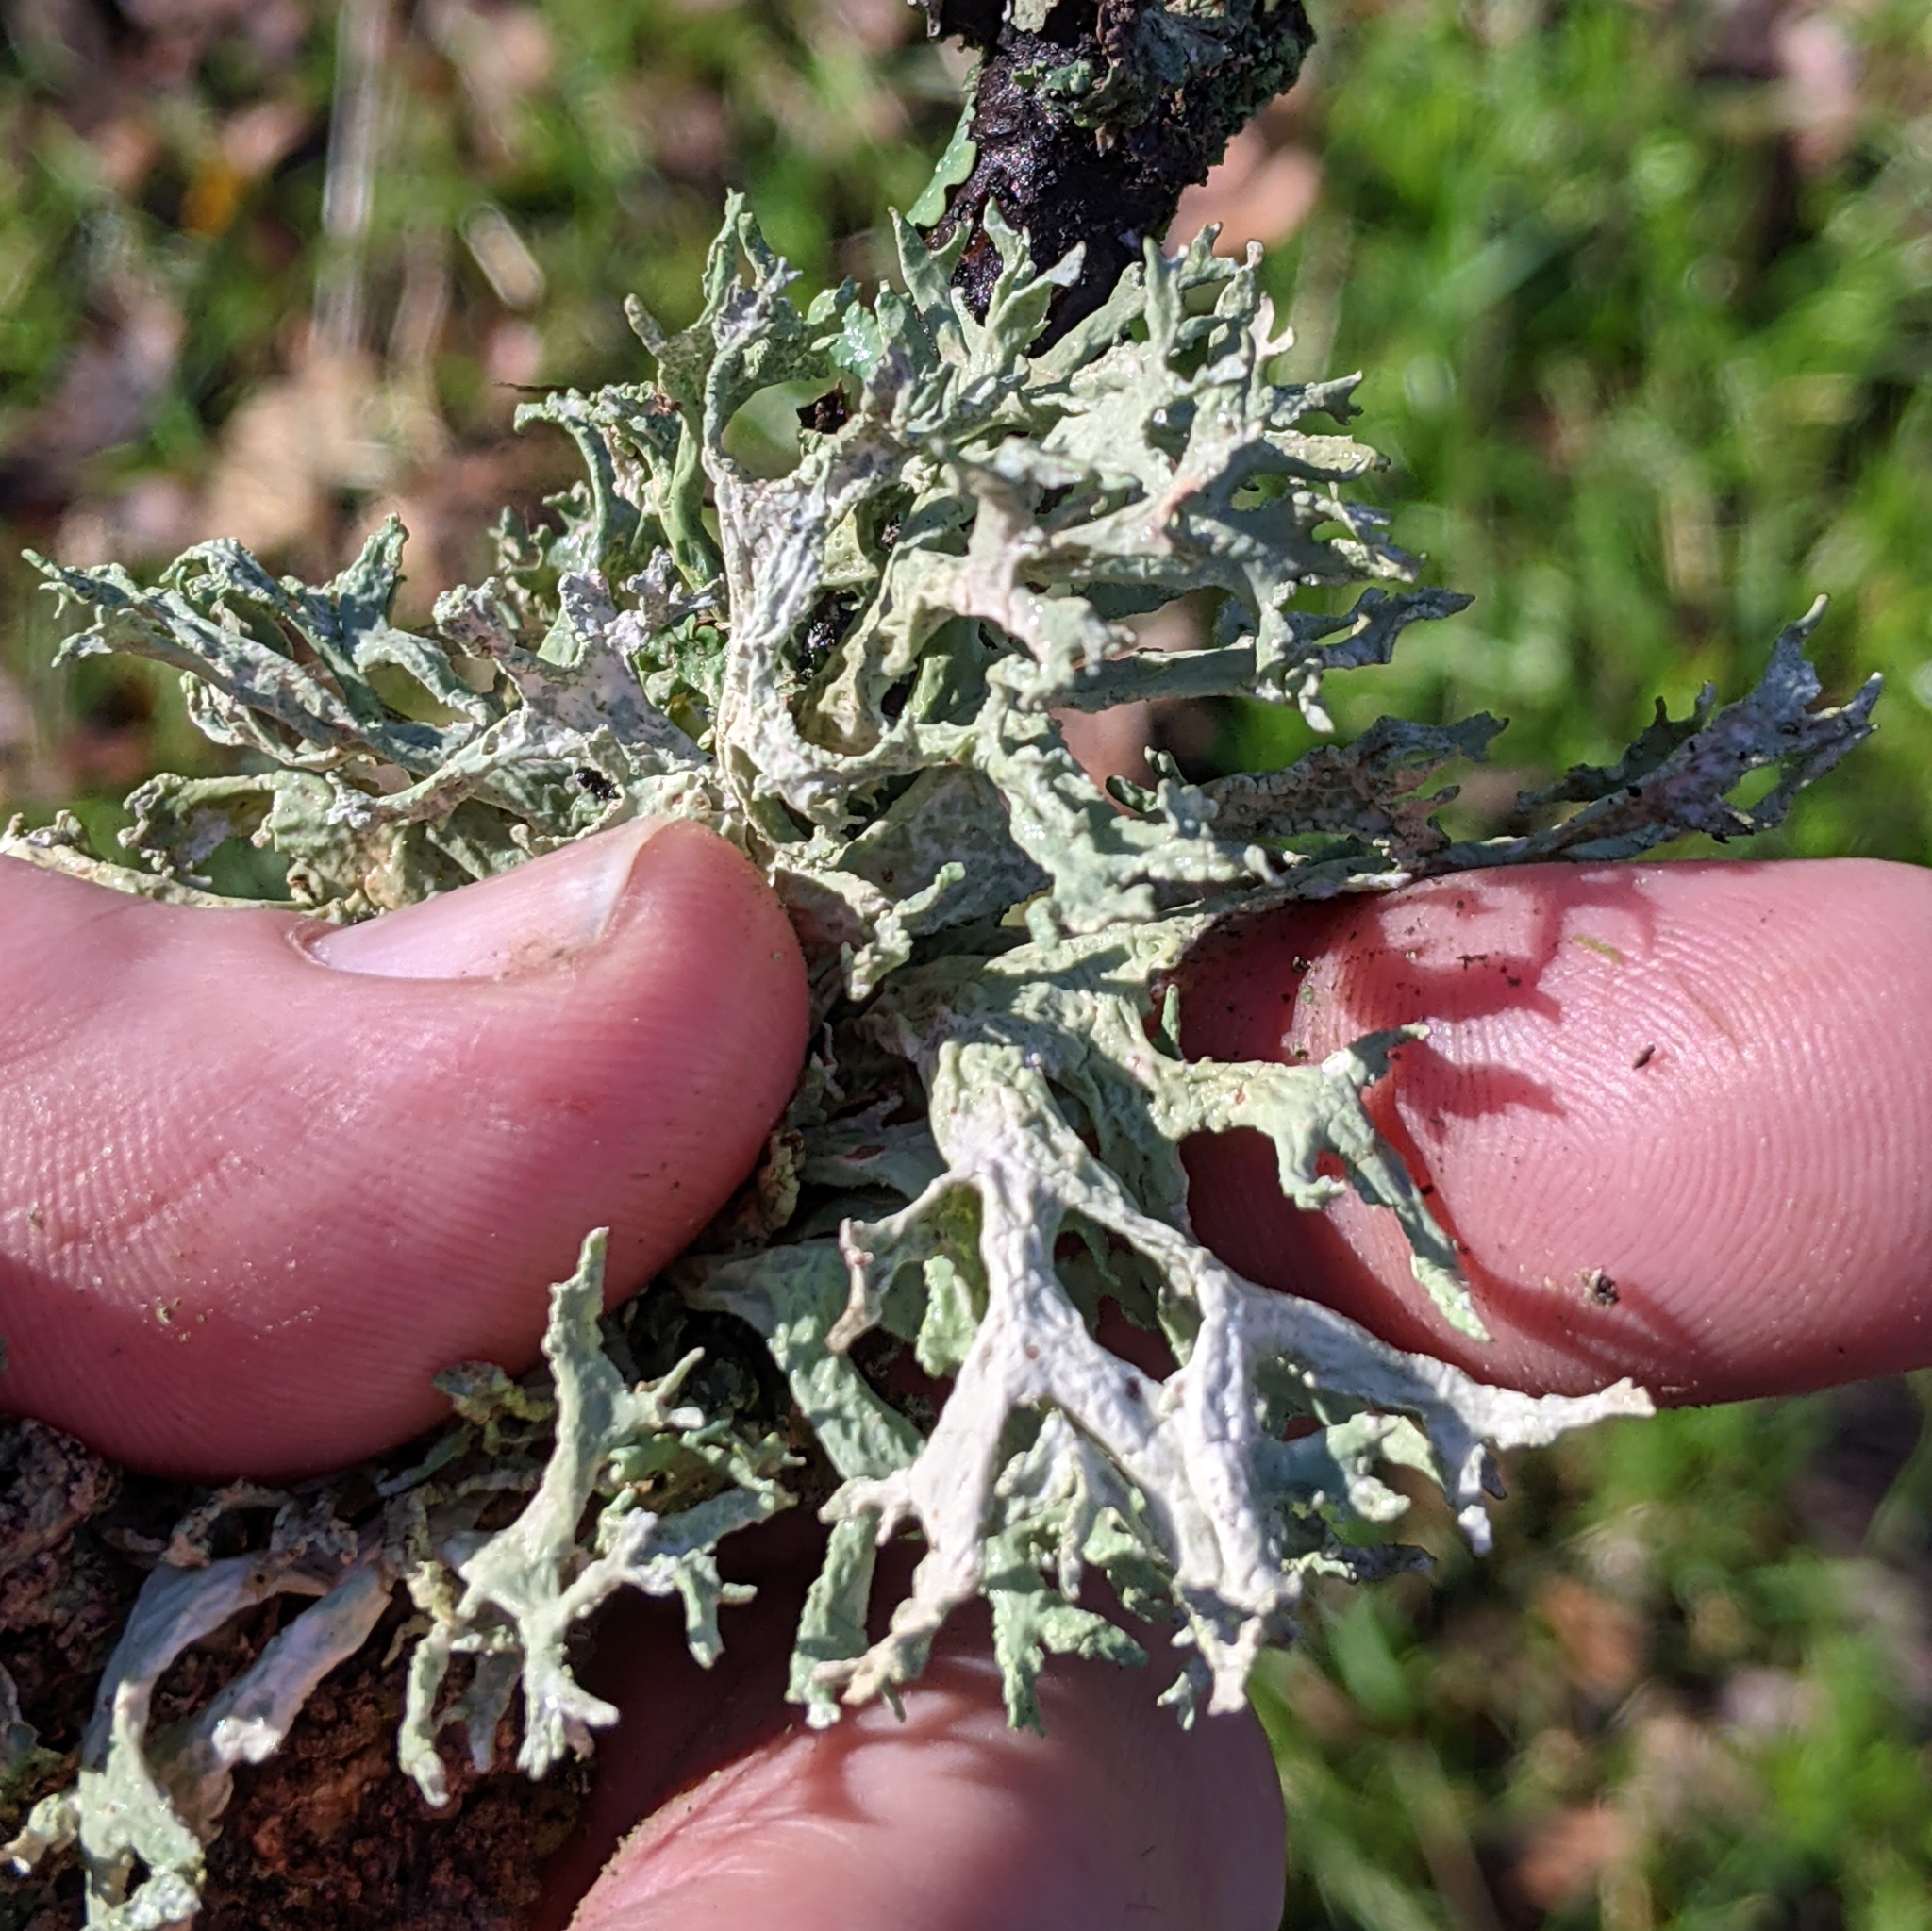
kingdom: Fungi
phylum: Ascomycota
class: Lecanoromycetes
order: Lecanorales
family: Parmeliaceae
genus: Evernia
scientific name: Evernia prunastri
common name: Oak moss
